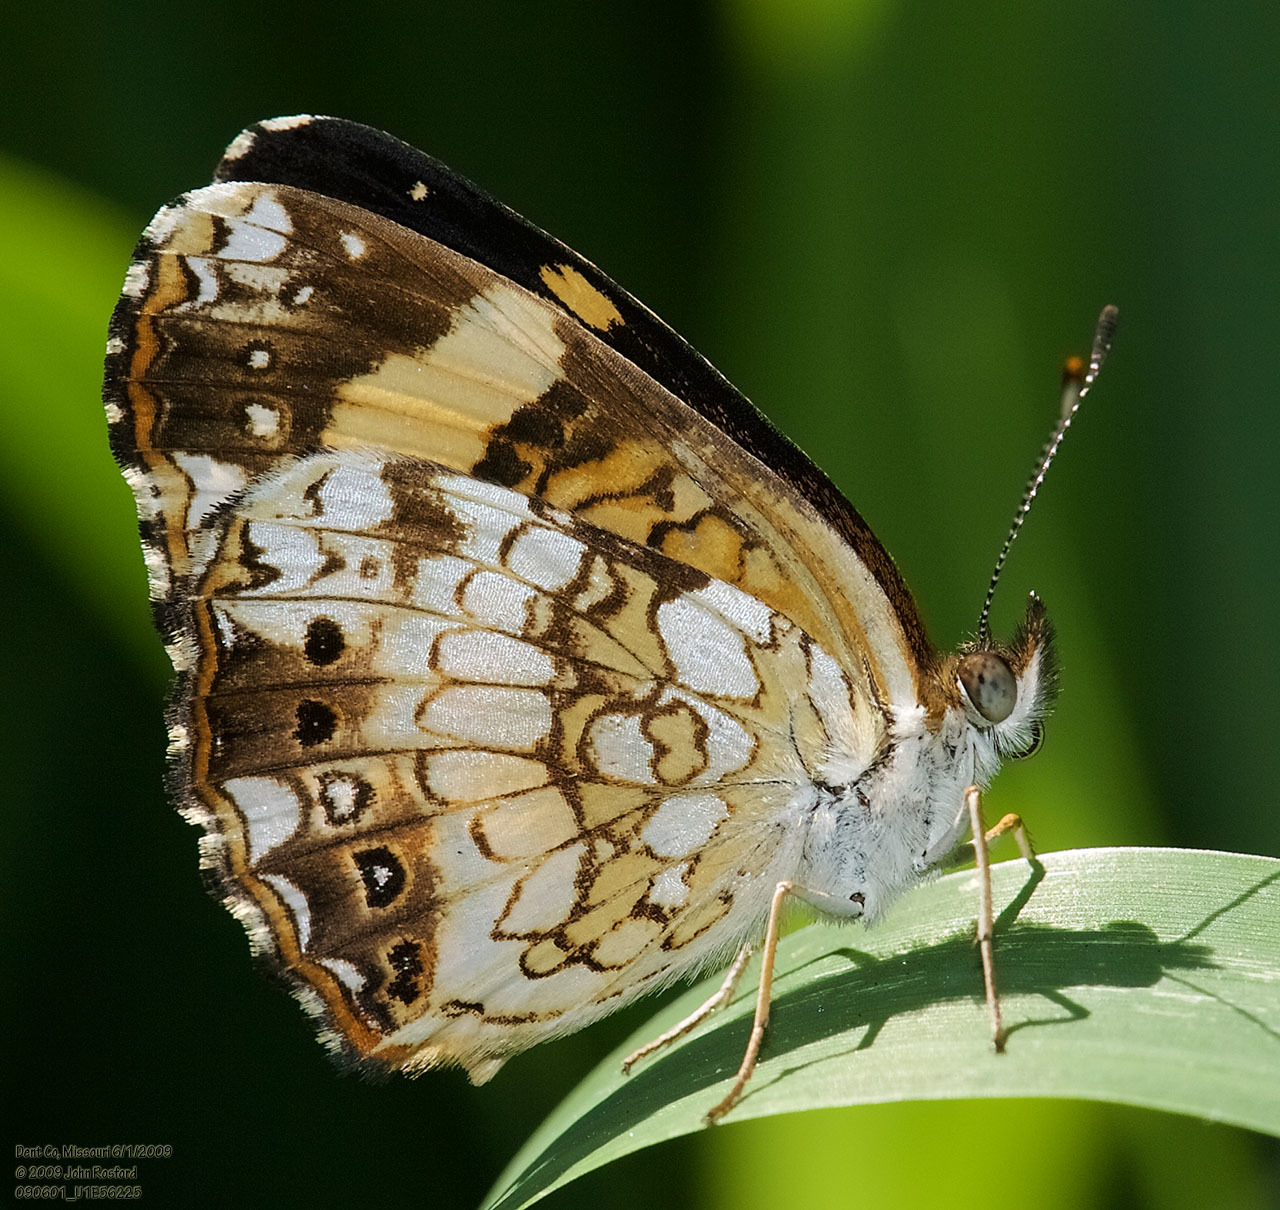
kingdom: Animalia
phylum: Arthropoda
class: Insecta
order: Lepidoptera
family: Nymphalidae
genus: Chlosyne
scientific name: Chlosyne nycteis
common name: Silvery checkerspot
